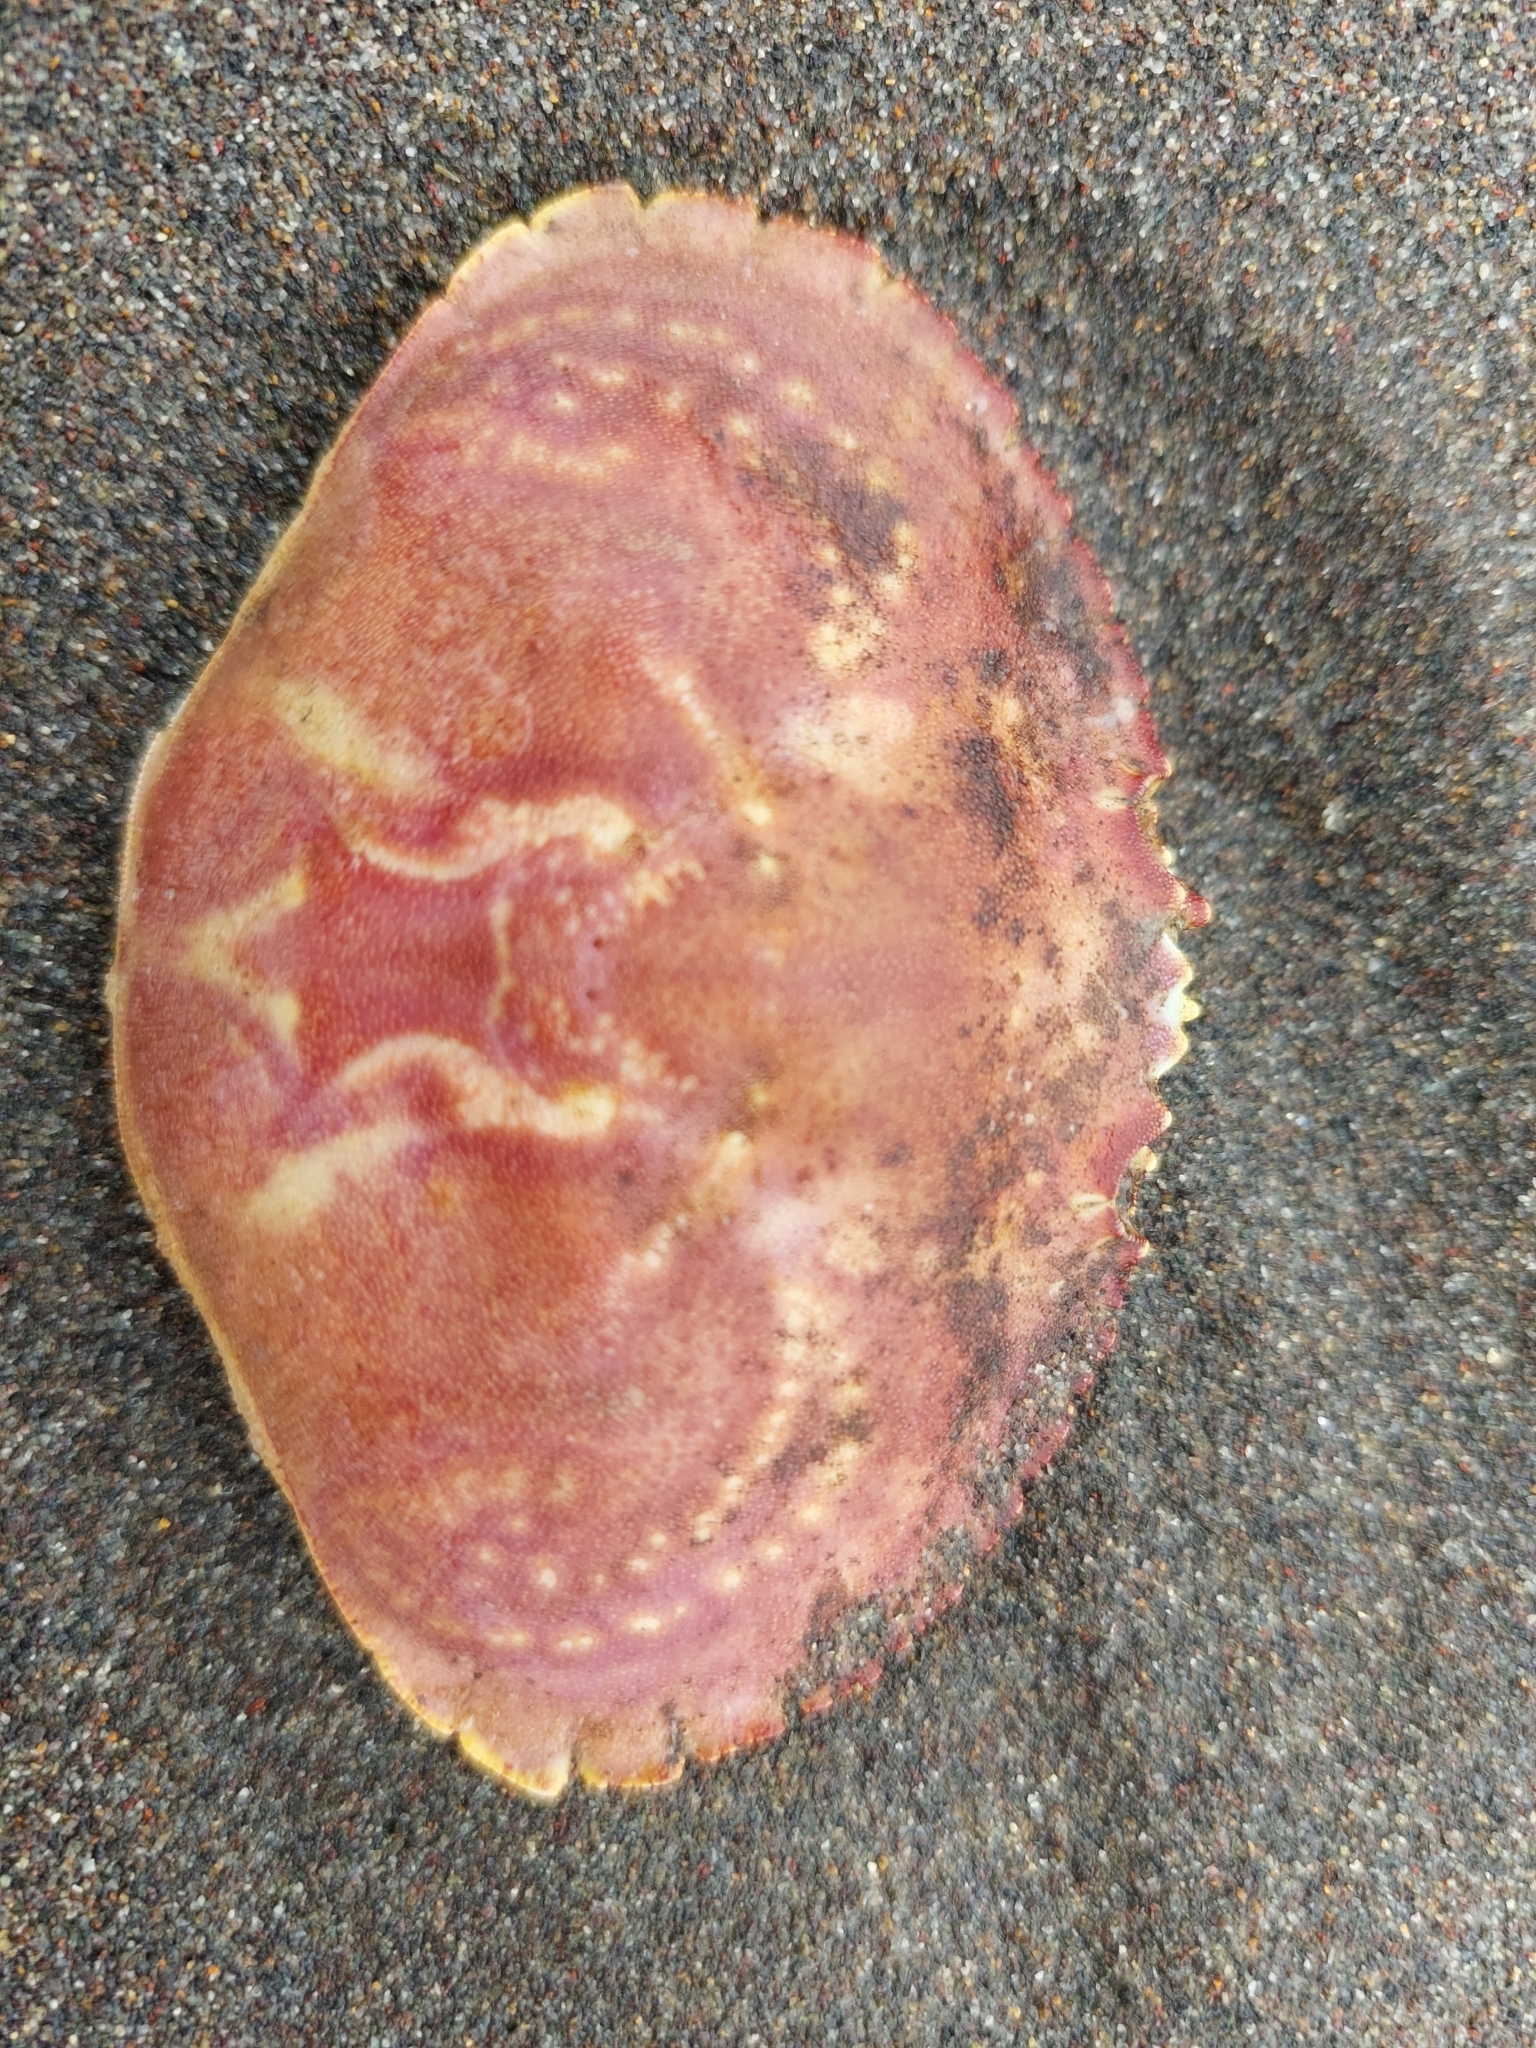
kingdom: Animalia
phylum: Arthropoda
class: Malacostraca
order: Decapoda
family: Cancridae
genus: Cancer
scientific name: Cancer plebejus
